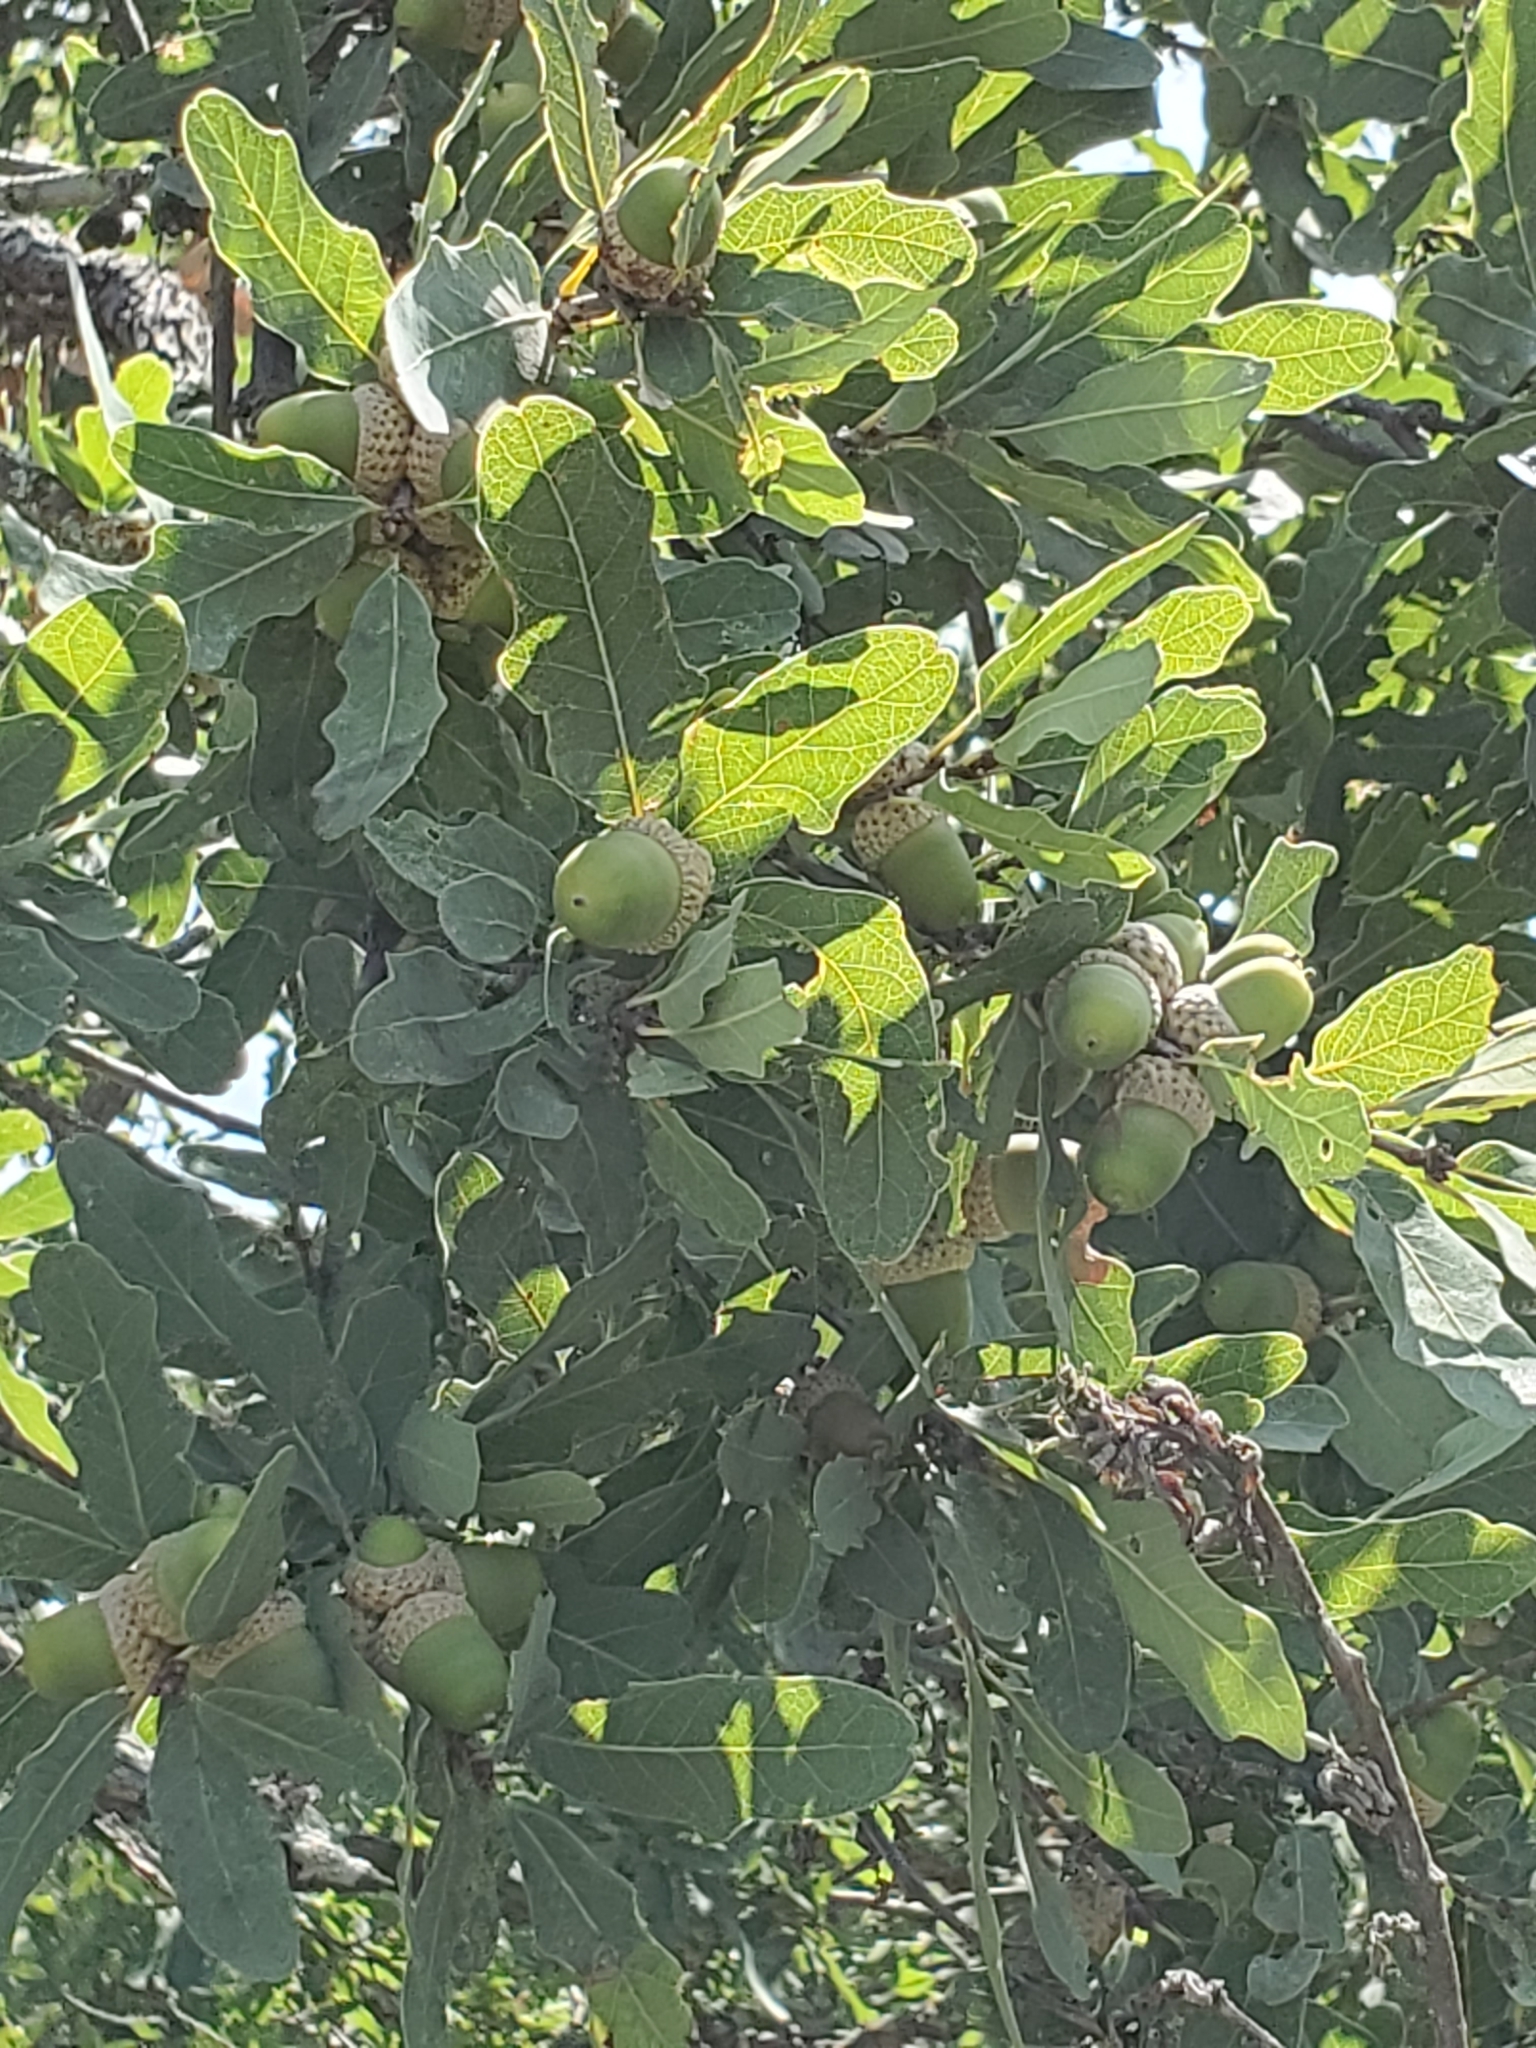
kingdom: Plantae
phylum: Tracheophyta
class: Magnoliopsida
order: Fagales
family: Fagaceae
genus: Quercus
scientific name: Quercus laceyi
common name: Lacey oak
